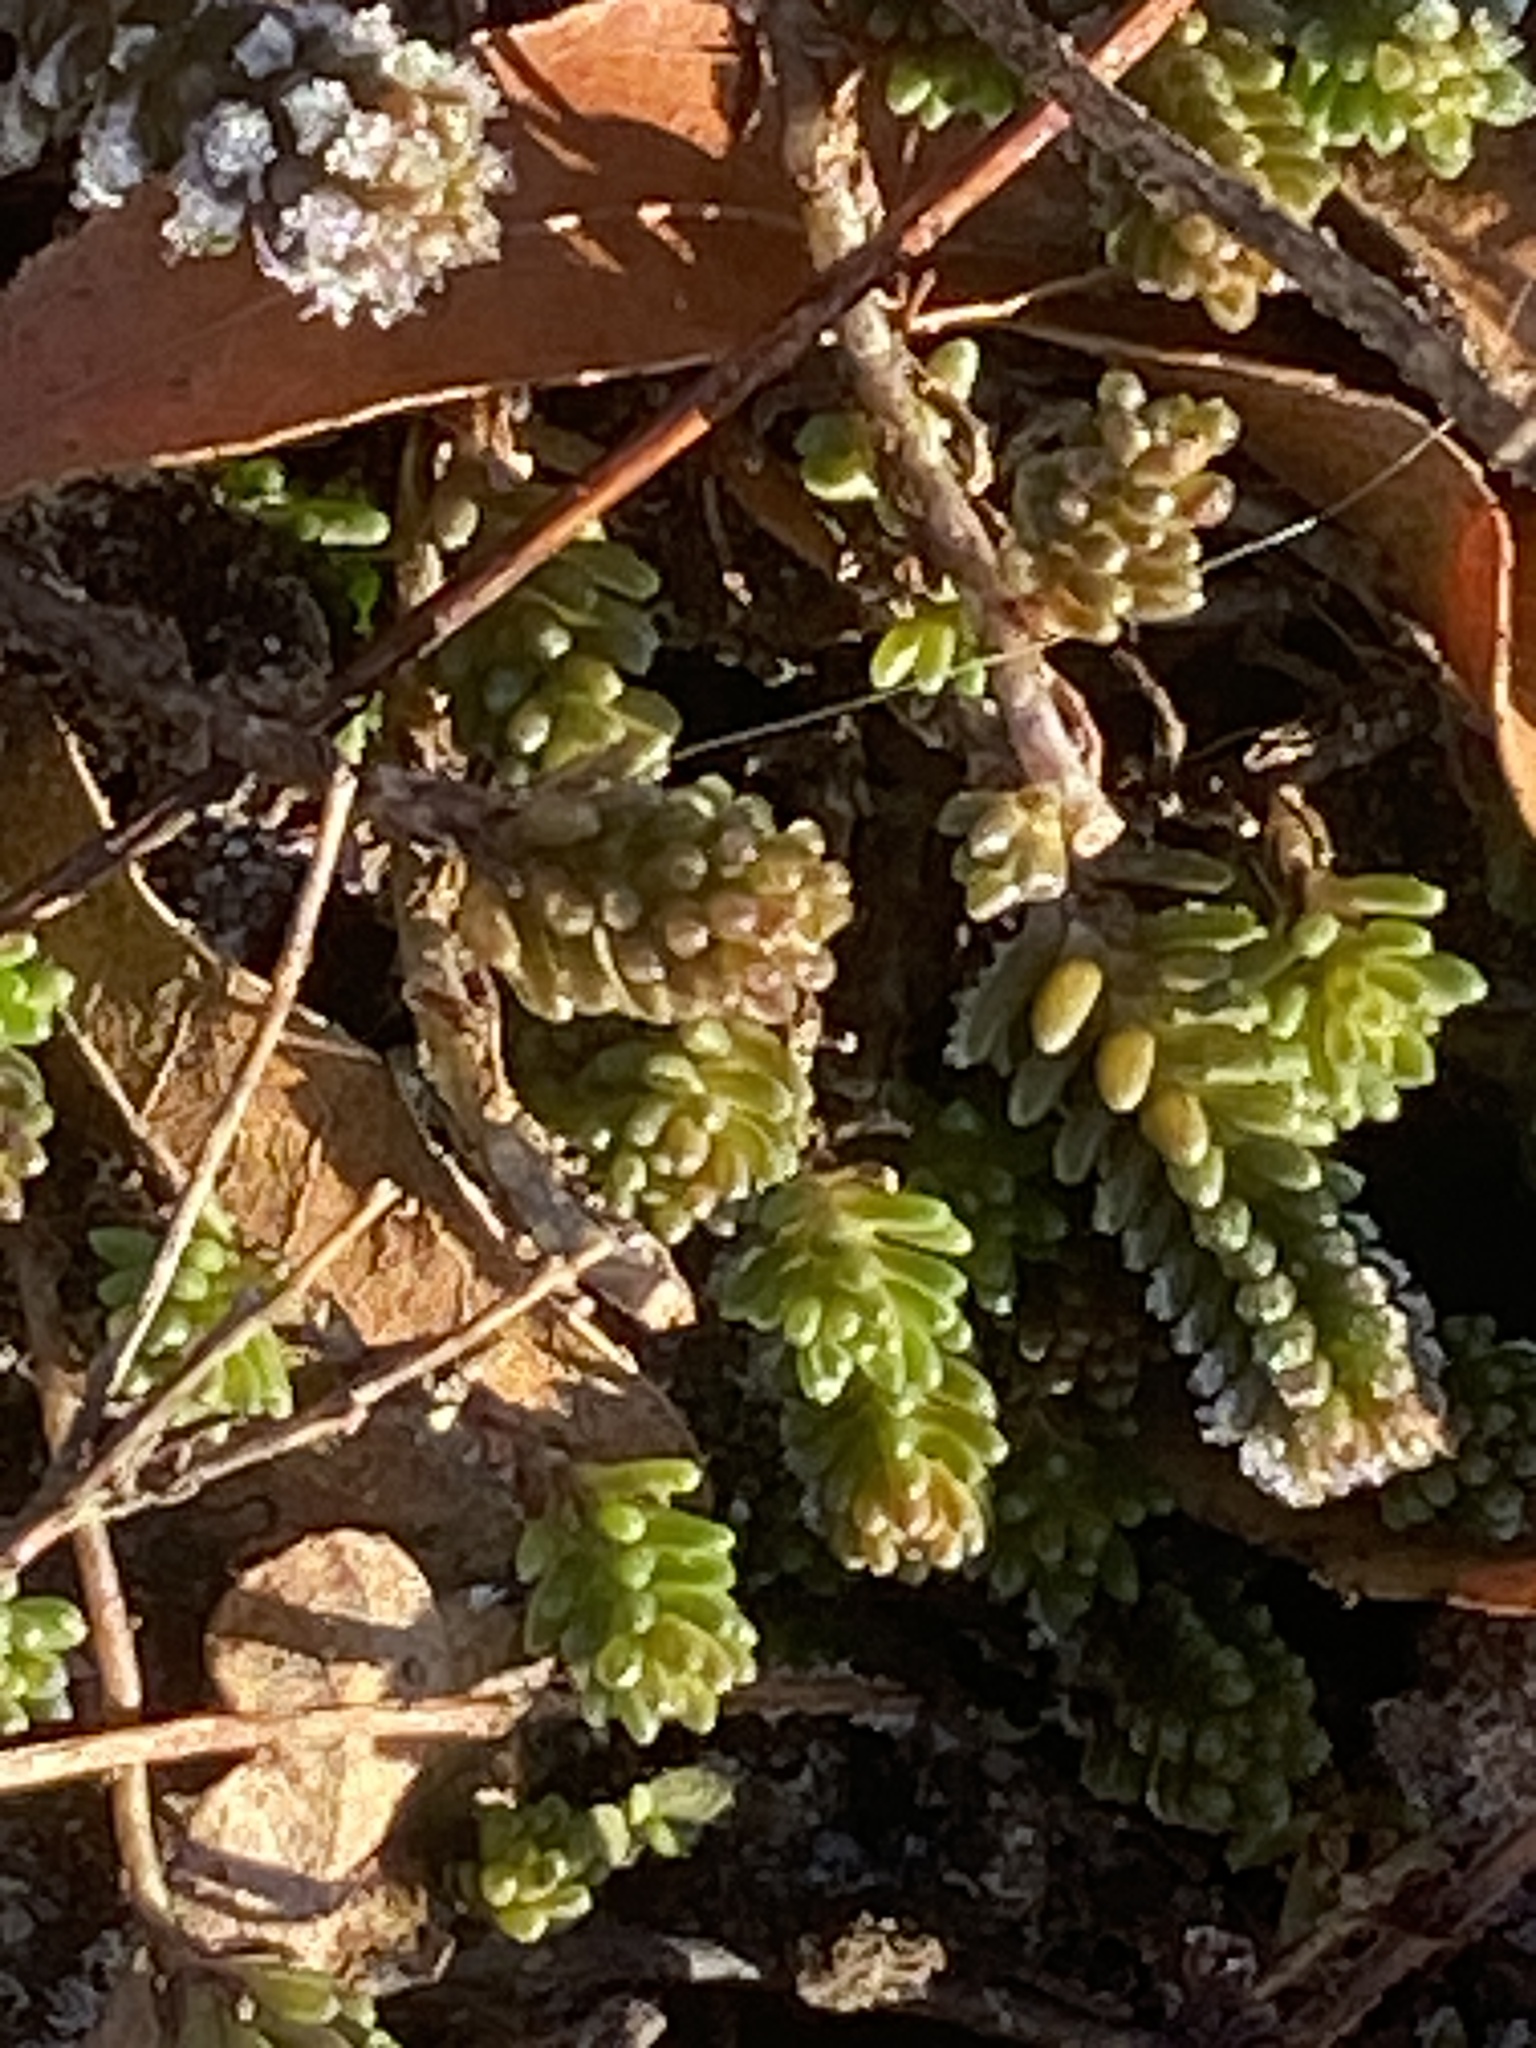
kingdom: Plantae
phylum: Tracheophyta
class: Magnoliopsida
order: Saxifragales
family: Crassulaceae
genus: Sedum
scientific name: Sedum sexangulare
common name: Tasteless stonecrop
